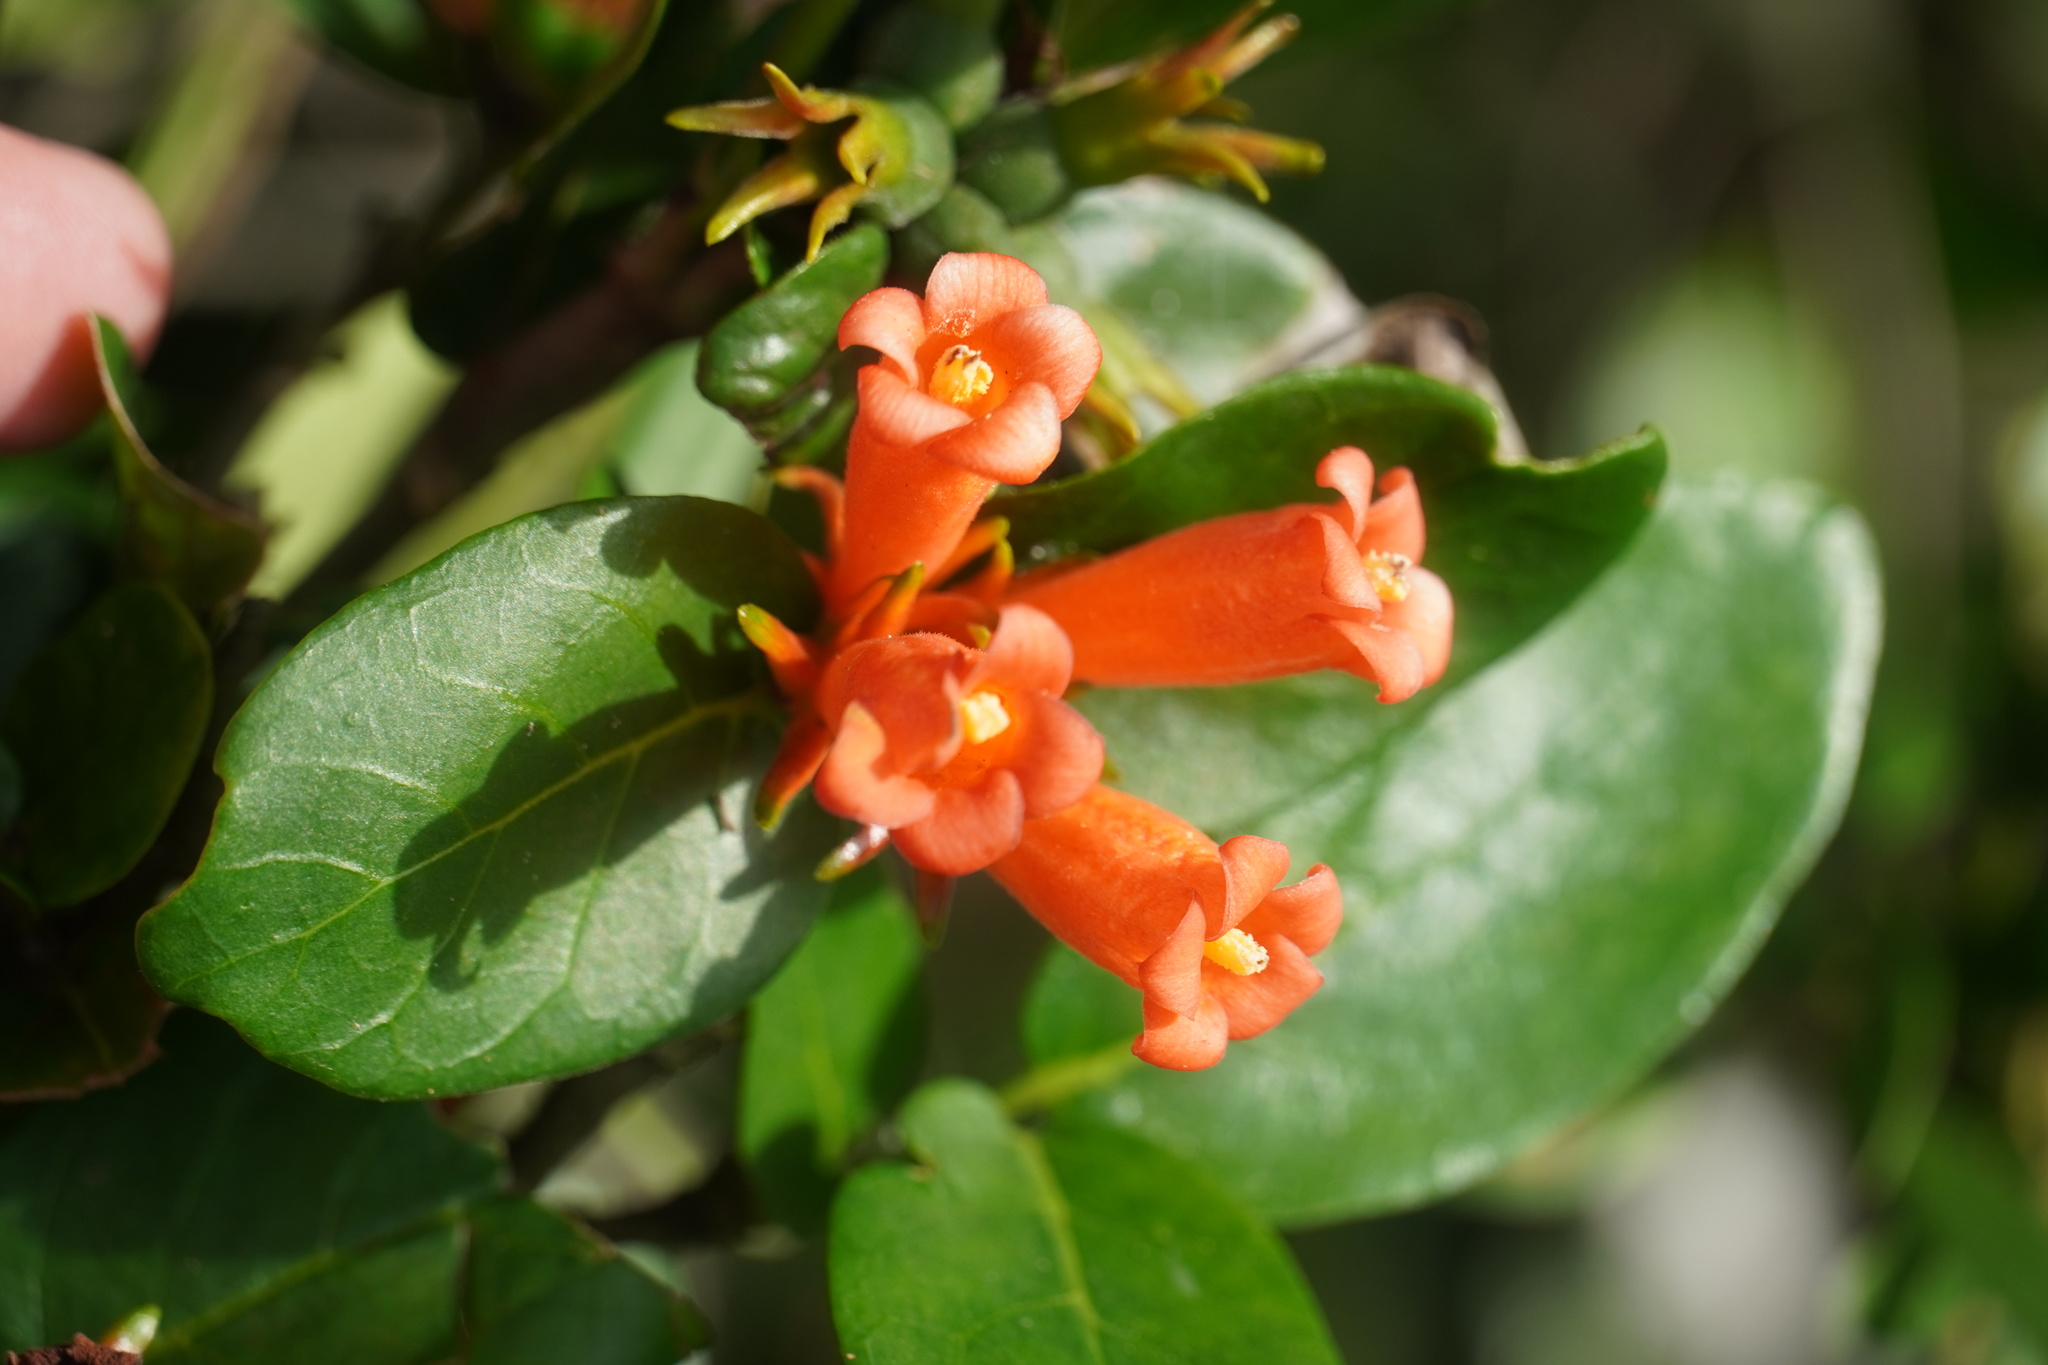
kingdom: Plantae
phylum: Tracheophyta
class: Magnoliopsida
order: Gentianales
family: Rubiaceae
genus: Burchellia
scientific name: Burchellia bubalina
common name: Wild pomegranate
